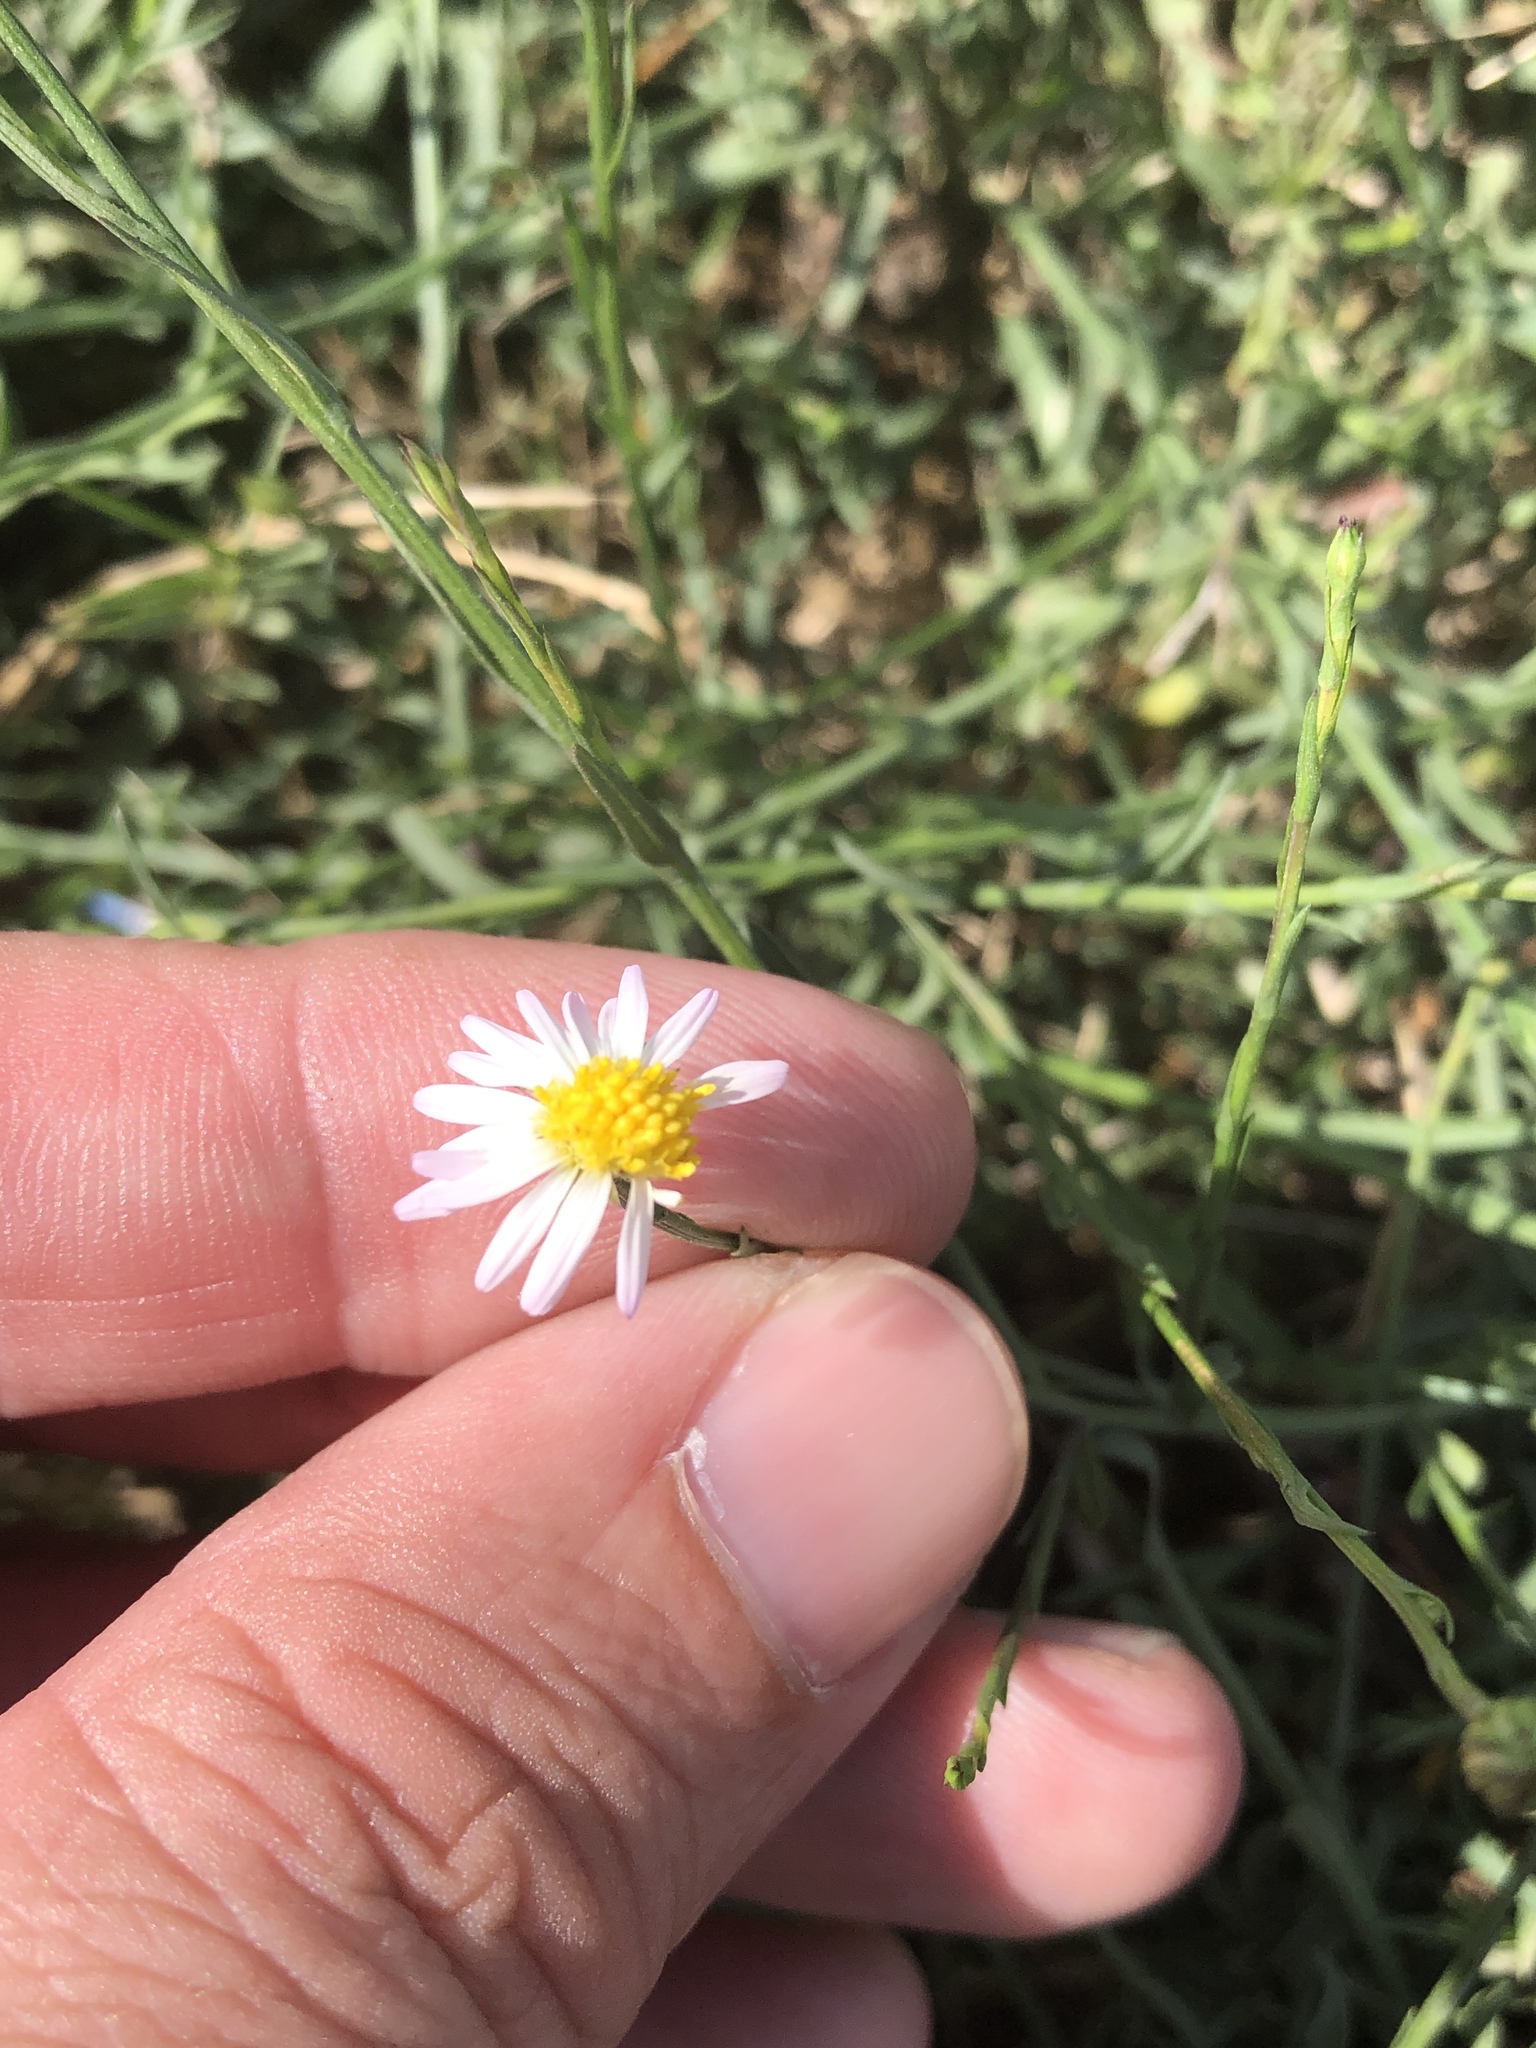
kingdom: Plantae
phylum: Tracheophyta
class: Magnoliopsida
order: Asterales
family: Asteraceae
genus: Symphyotrichum
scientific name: Symphyotrichum divaricatum
